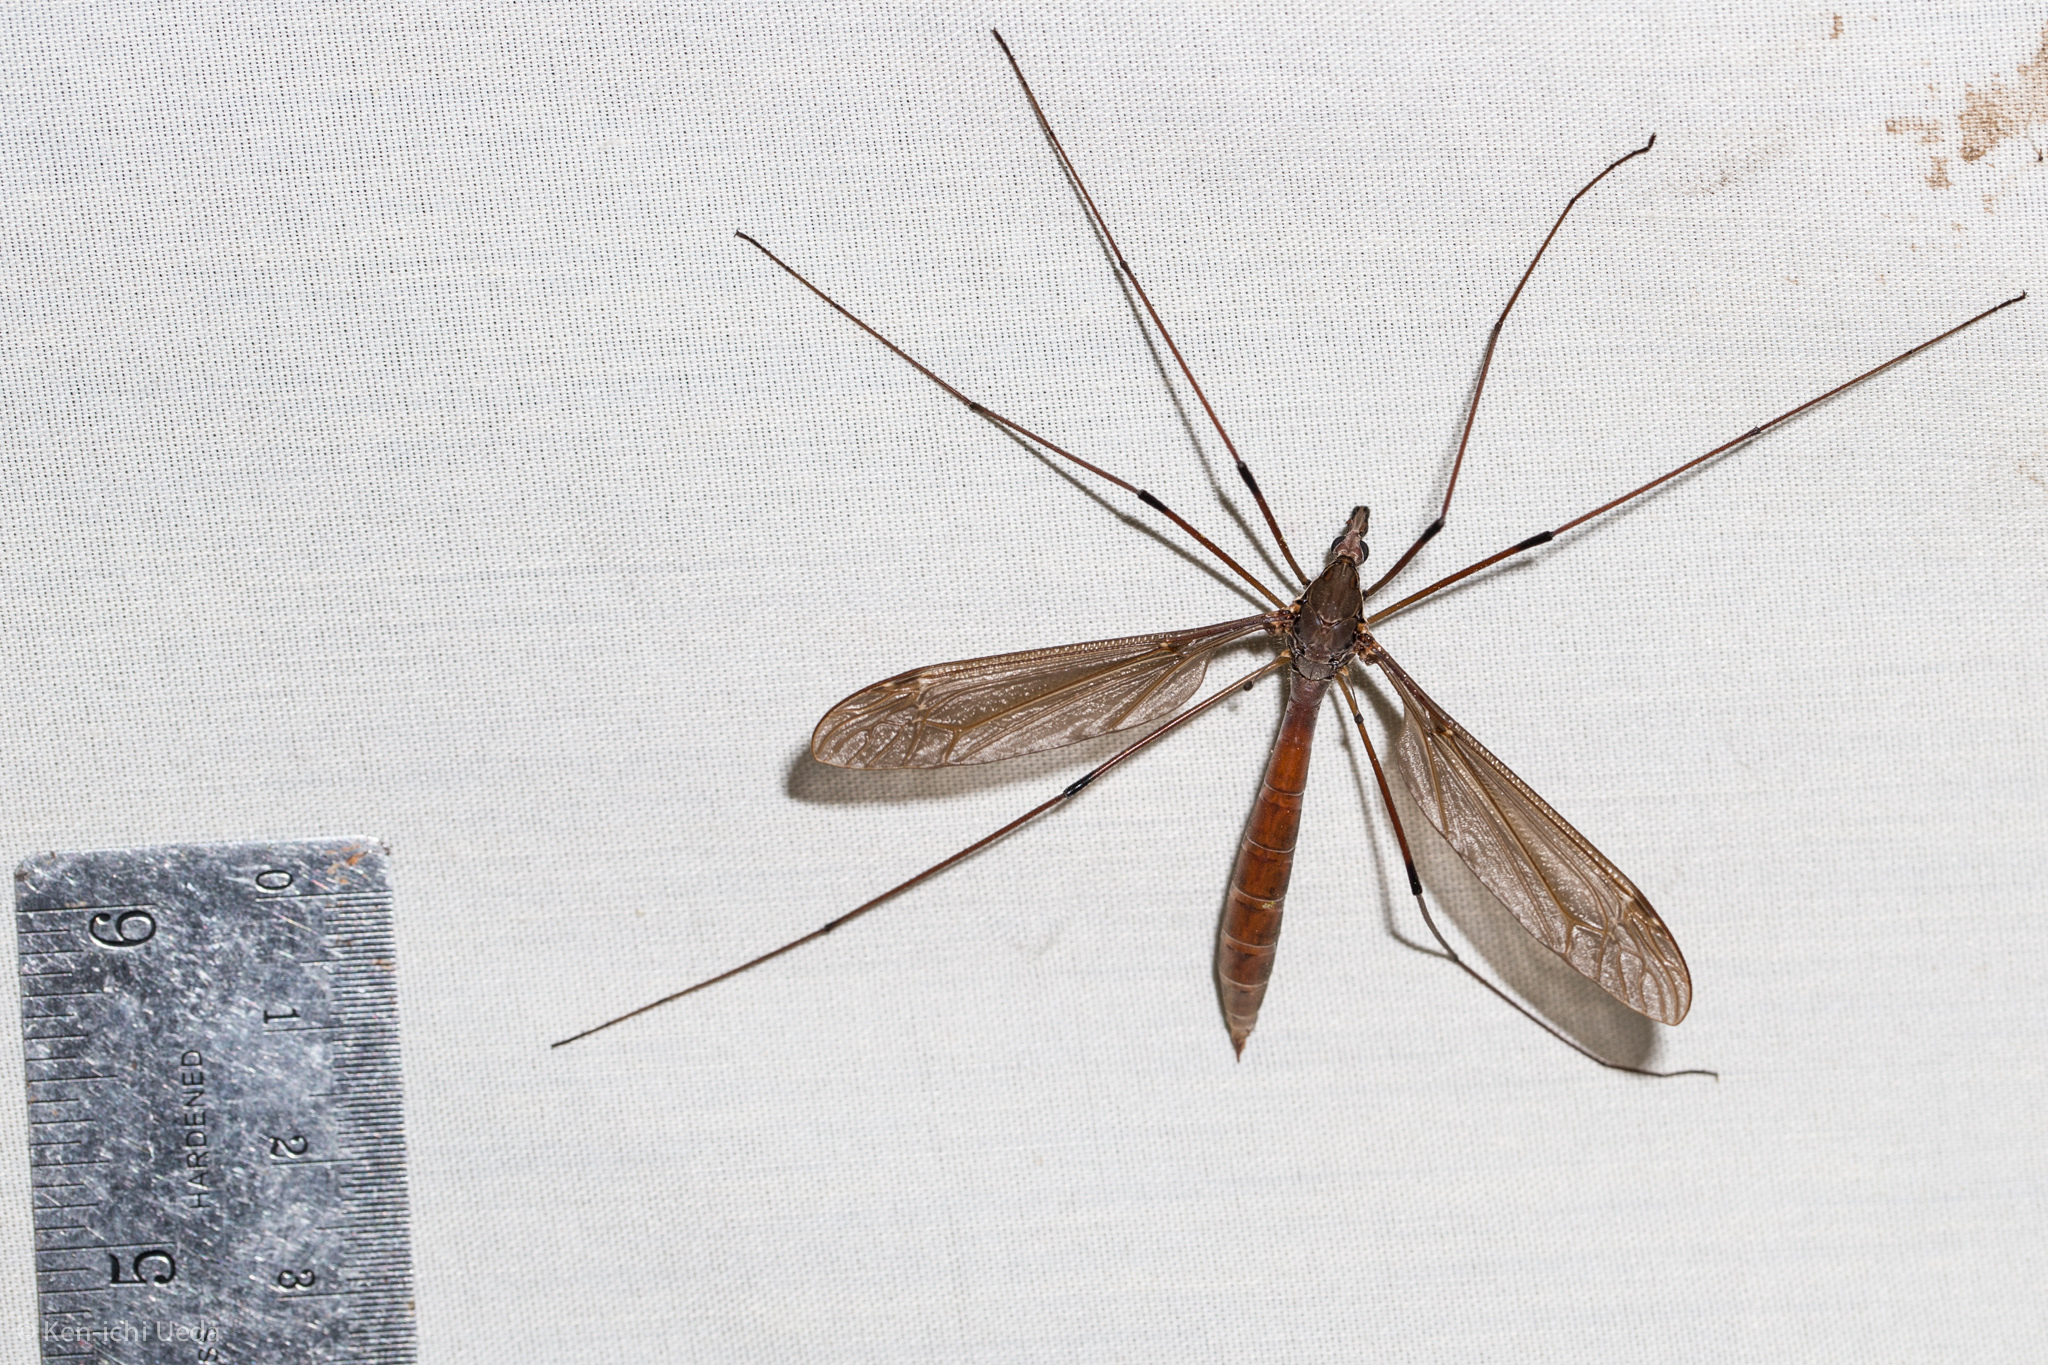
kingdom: Animalia
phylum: Arthropoda
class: Insecta
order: Diptera
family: Tipulidae
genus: Holorusia
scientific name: Holorusia hespera
